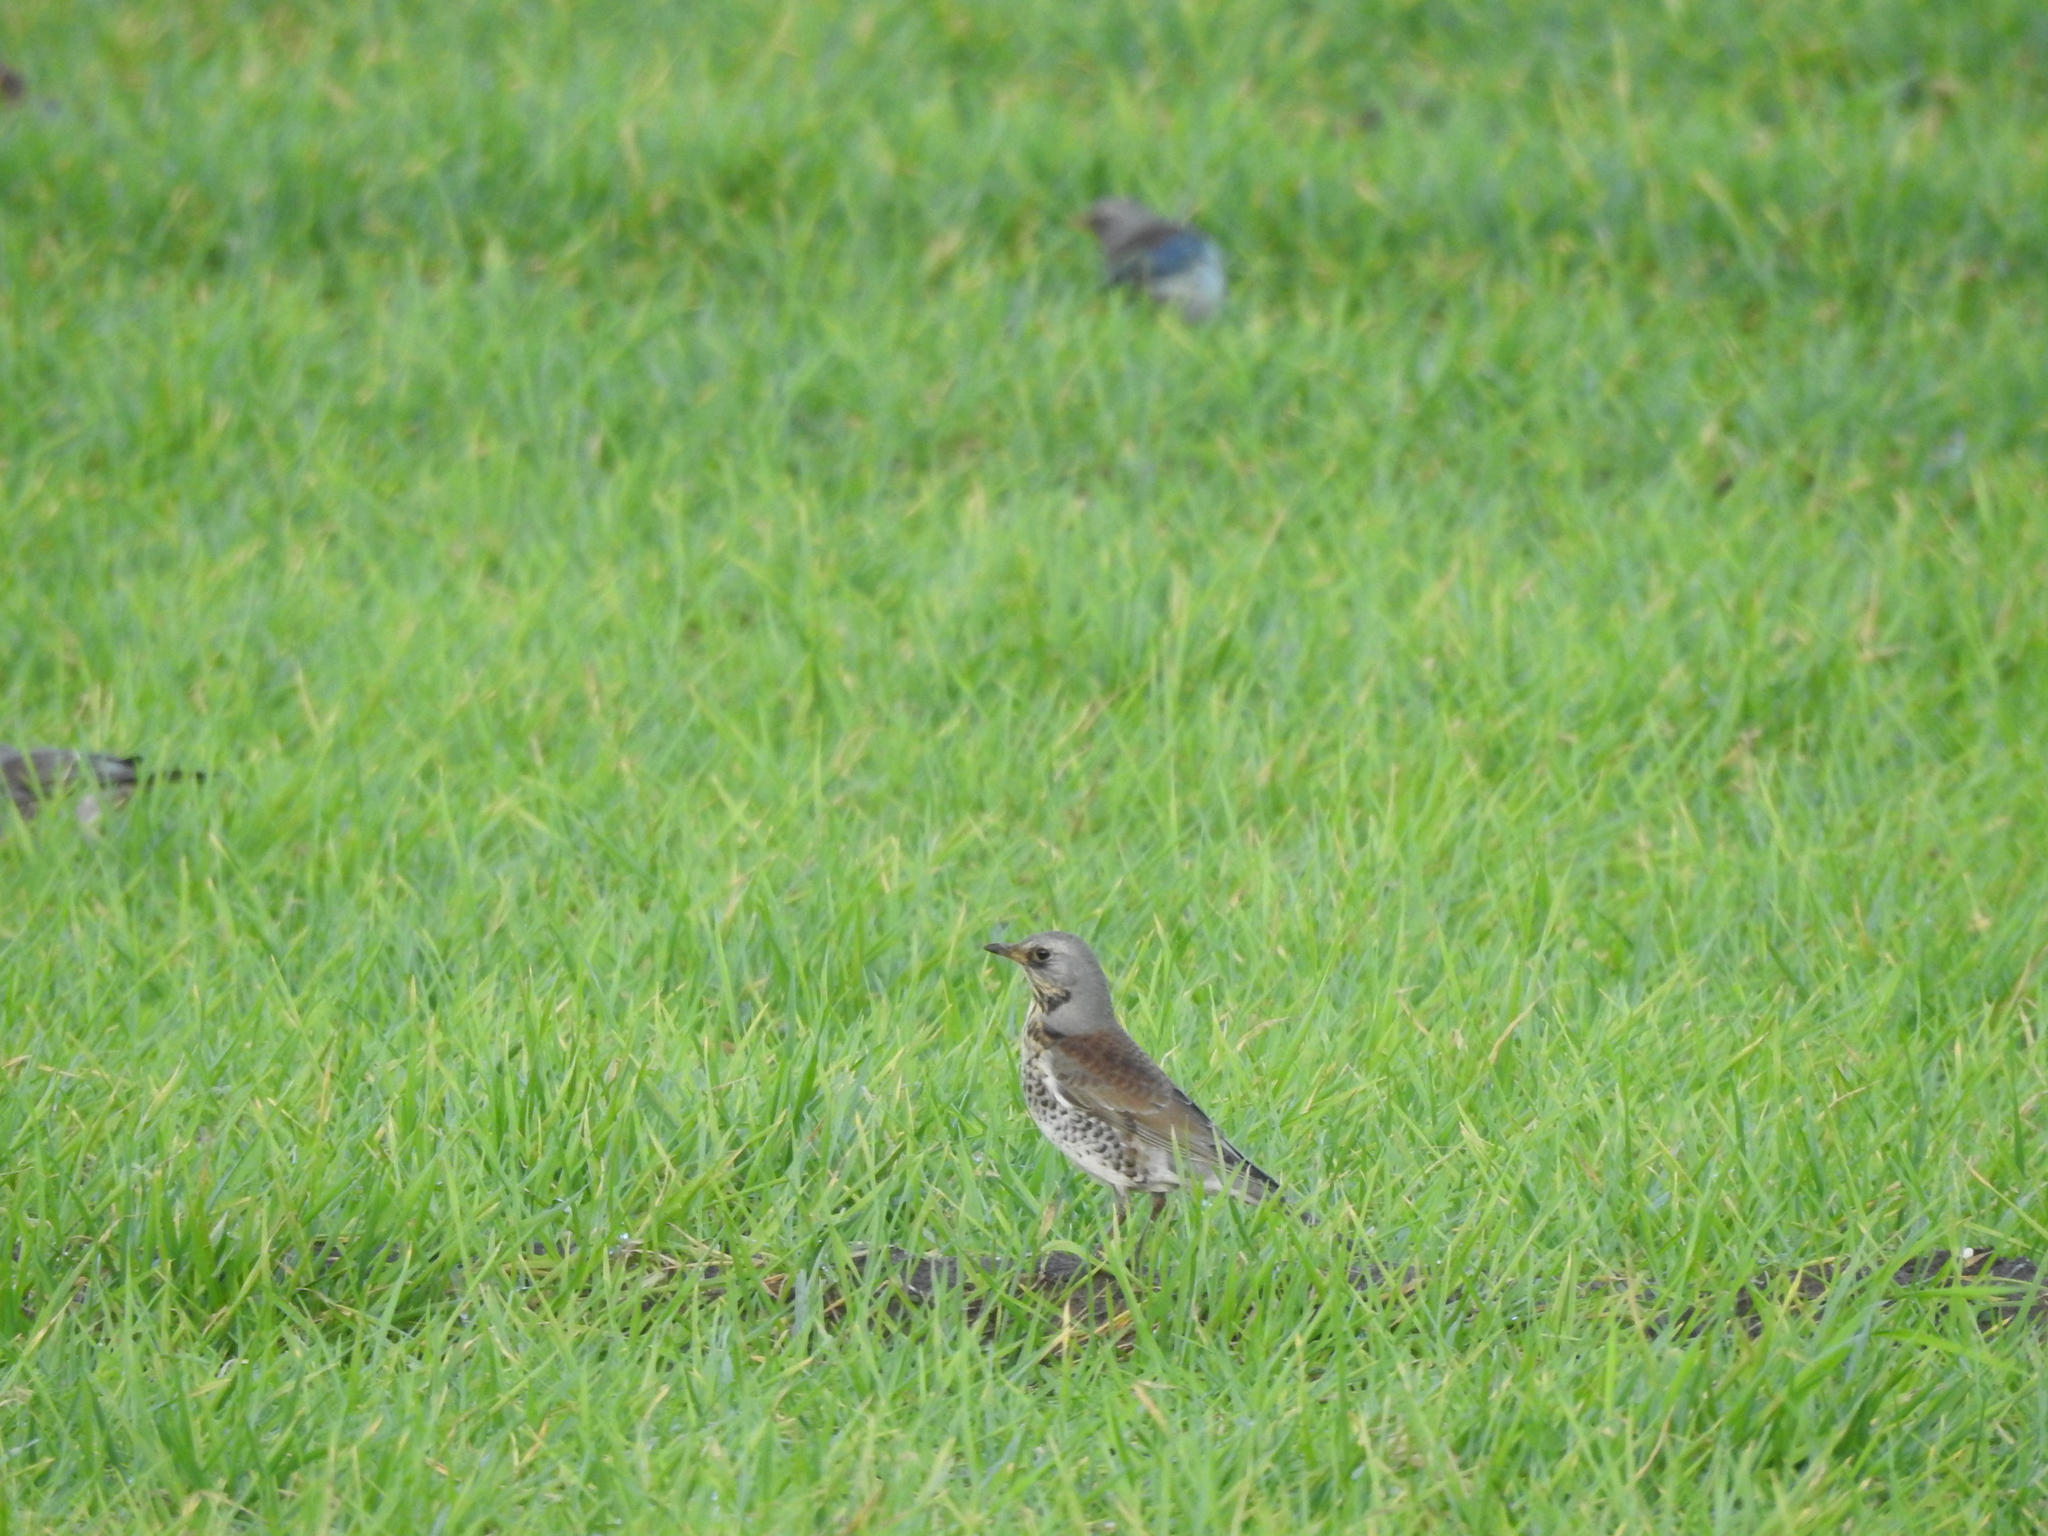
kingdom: Animalia
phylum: Chordata
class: Aves
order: Passeriformes
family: Turdidae
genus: Turdus
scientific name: Turdus pilaris
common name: Fieldfare
